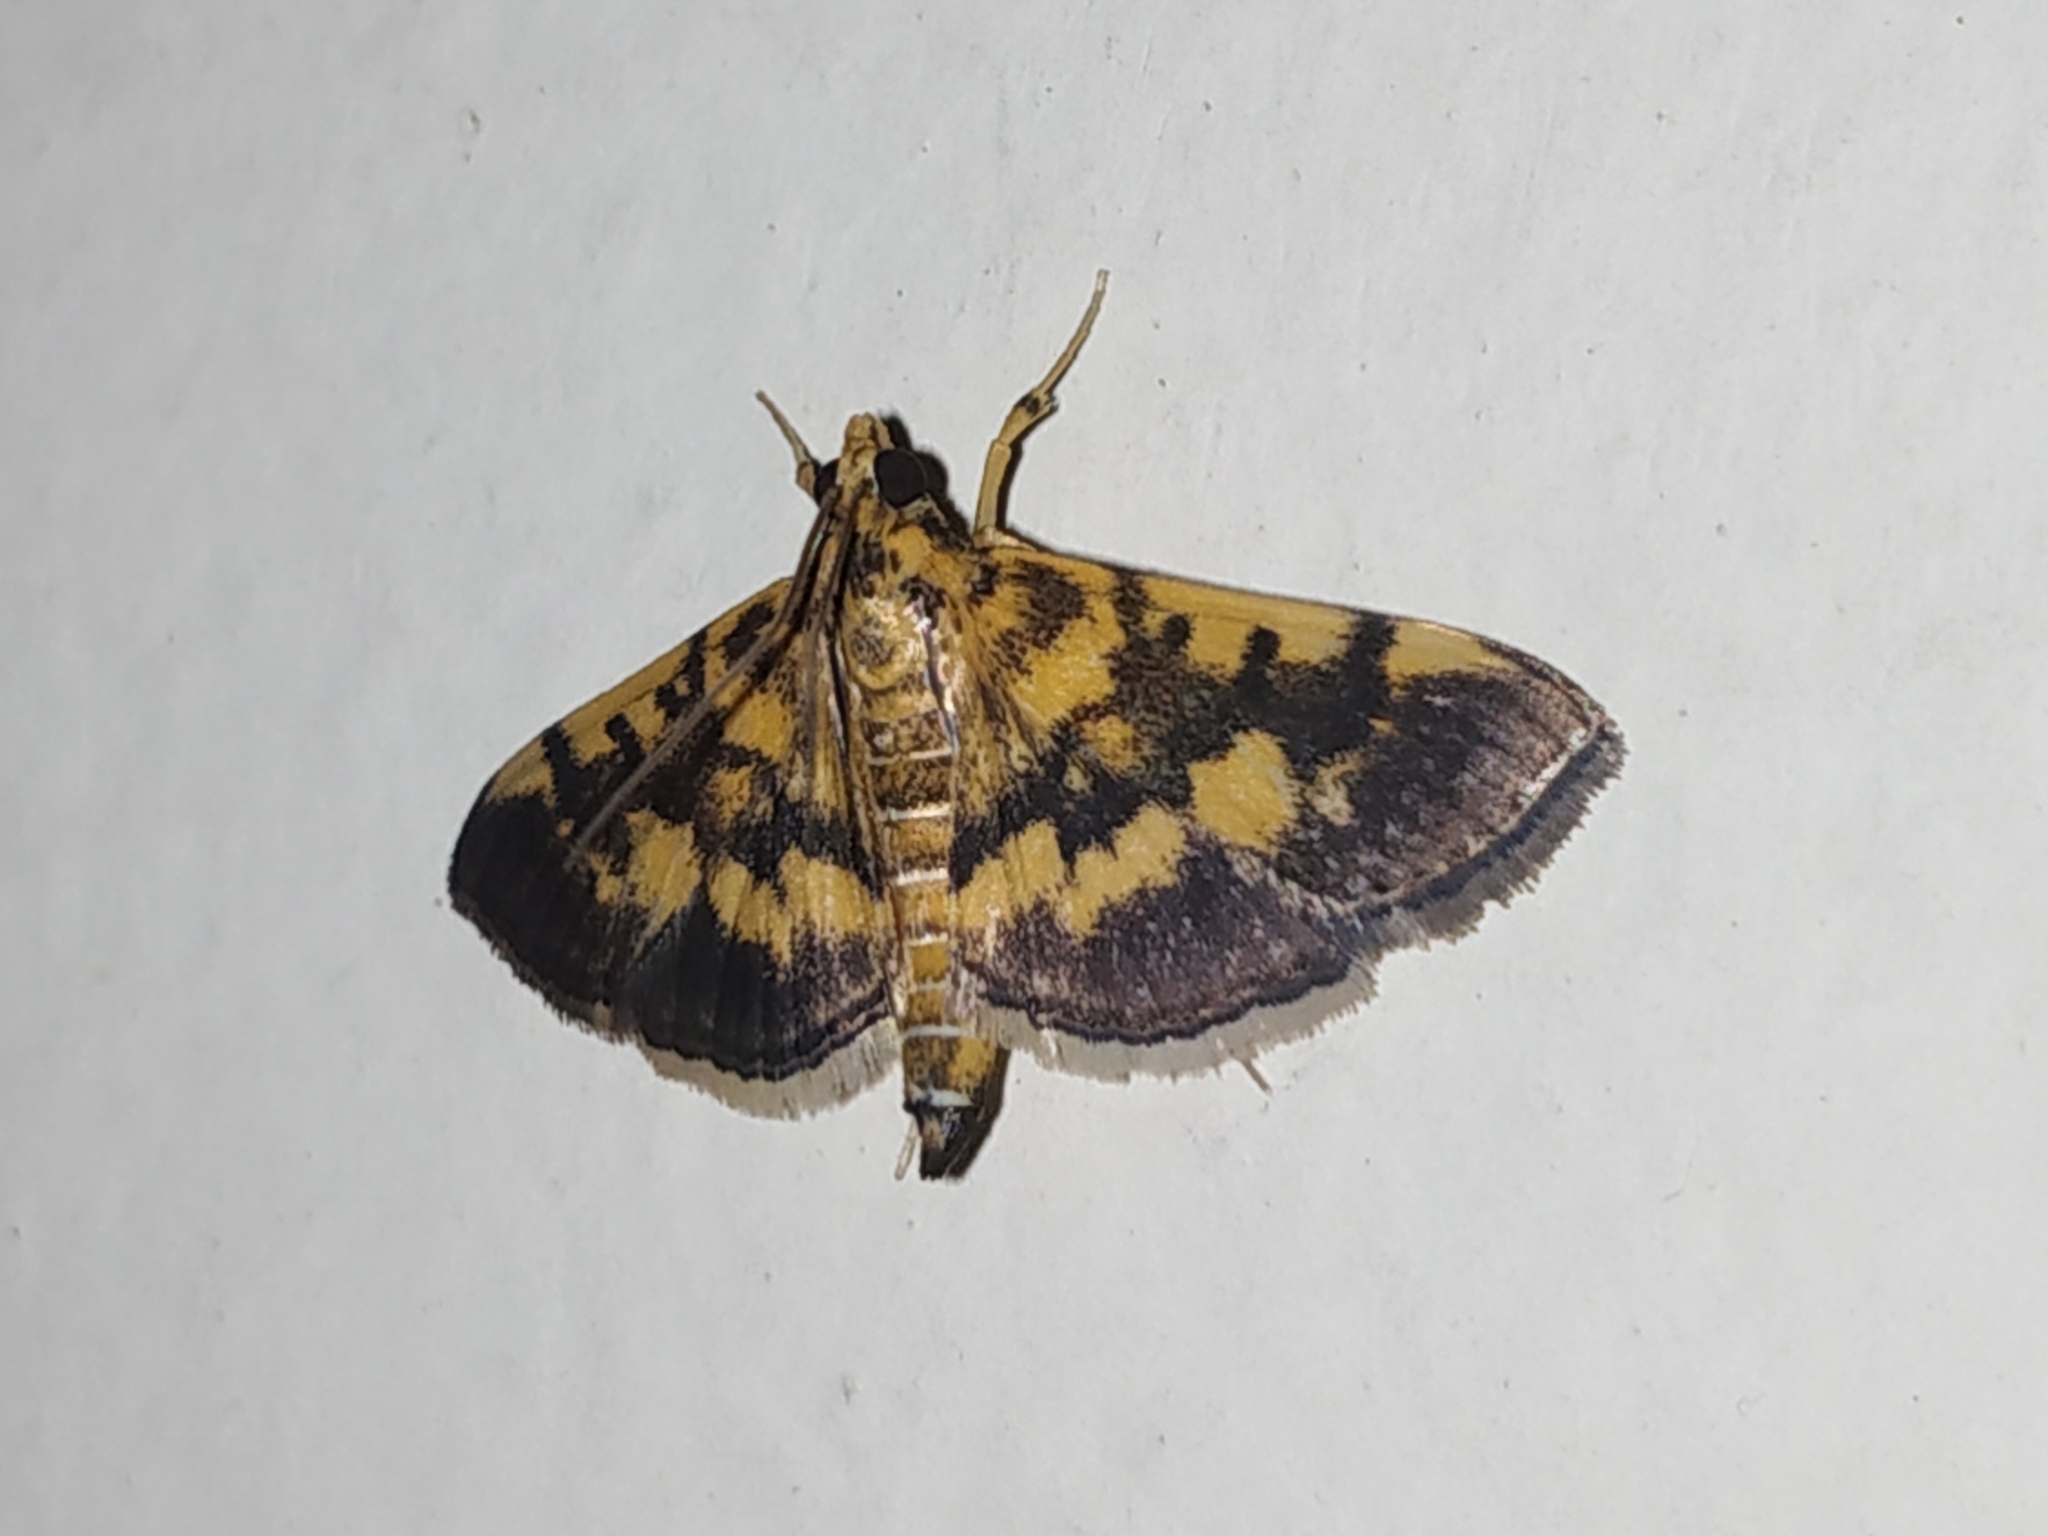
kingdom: Animalia
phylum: Arthropoda
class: Insecta
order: Lepidoptera
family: Crambidae
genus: Omiodes
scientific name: Omiodes diemenalis
